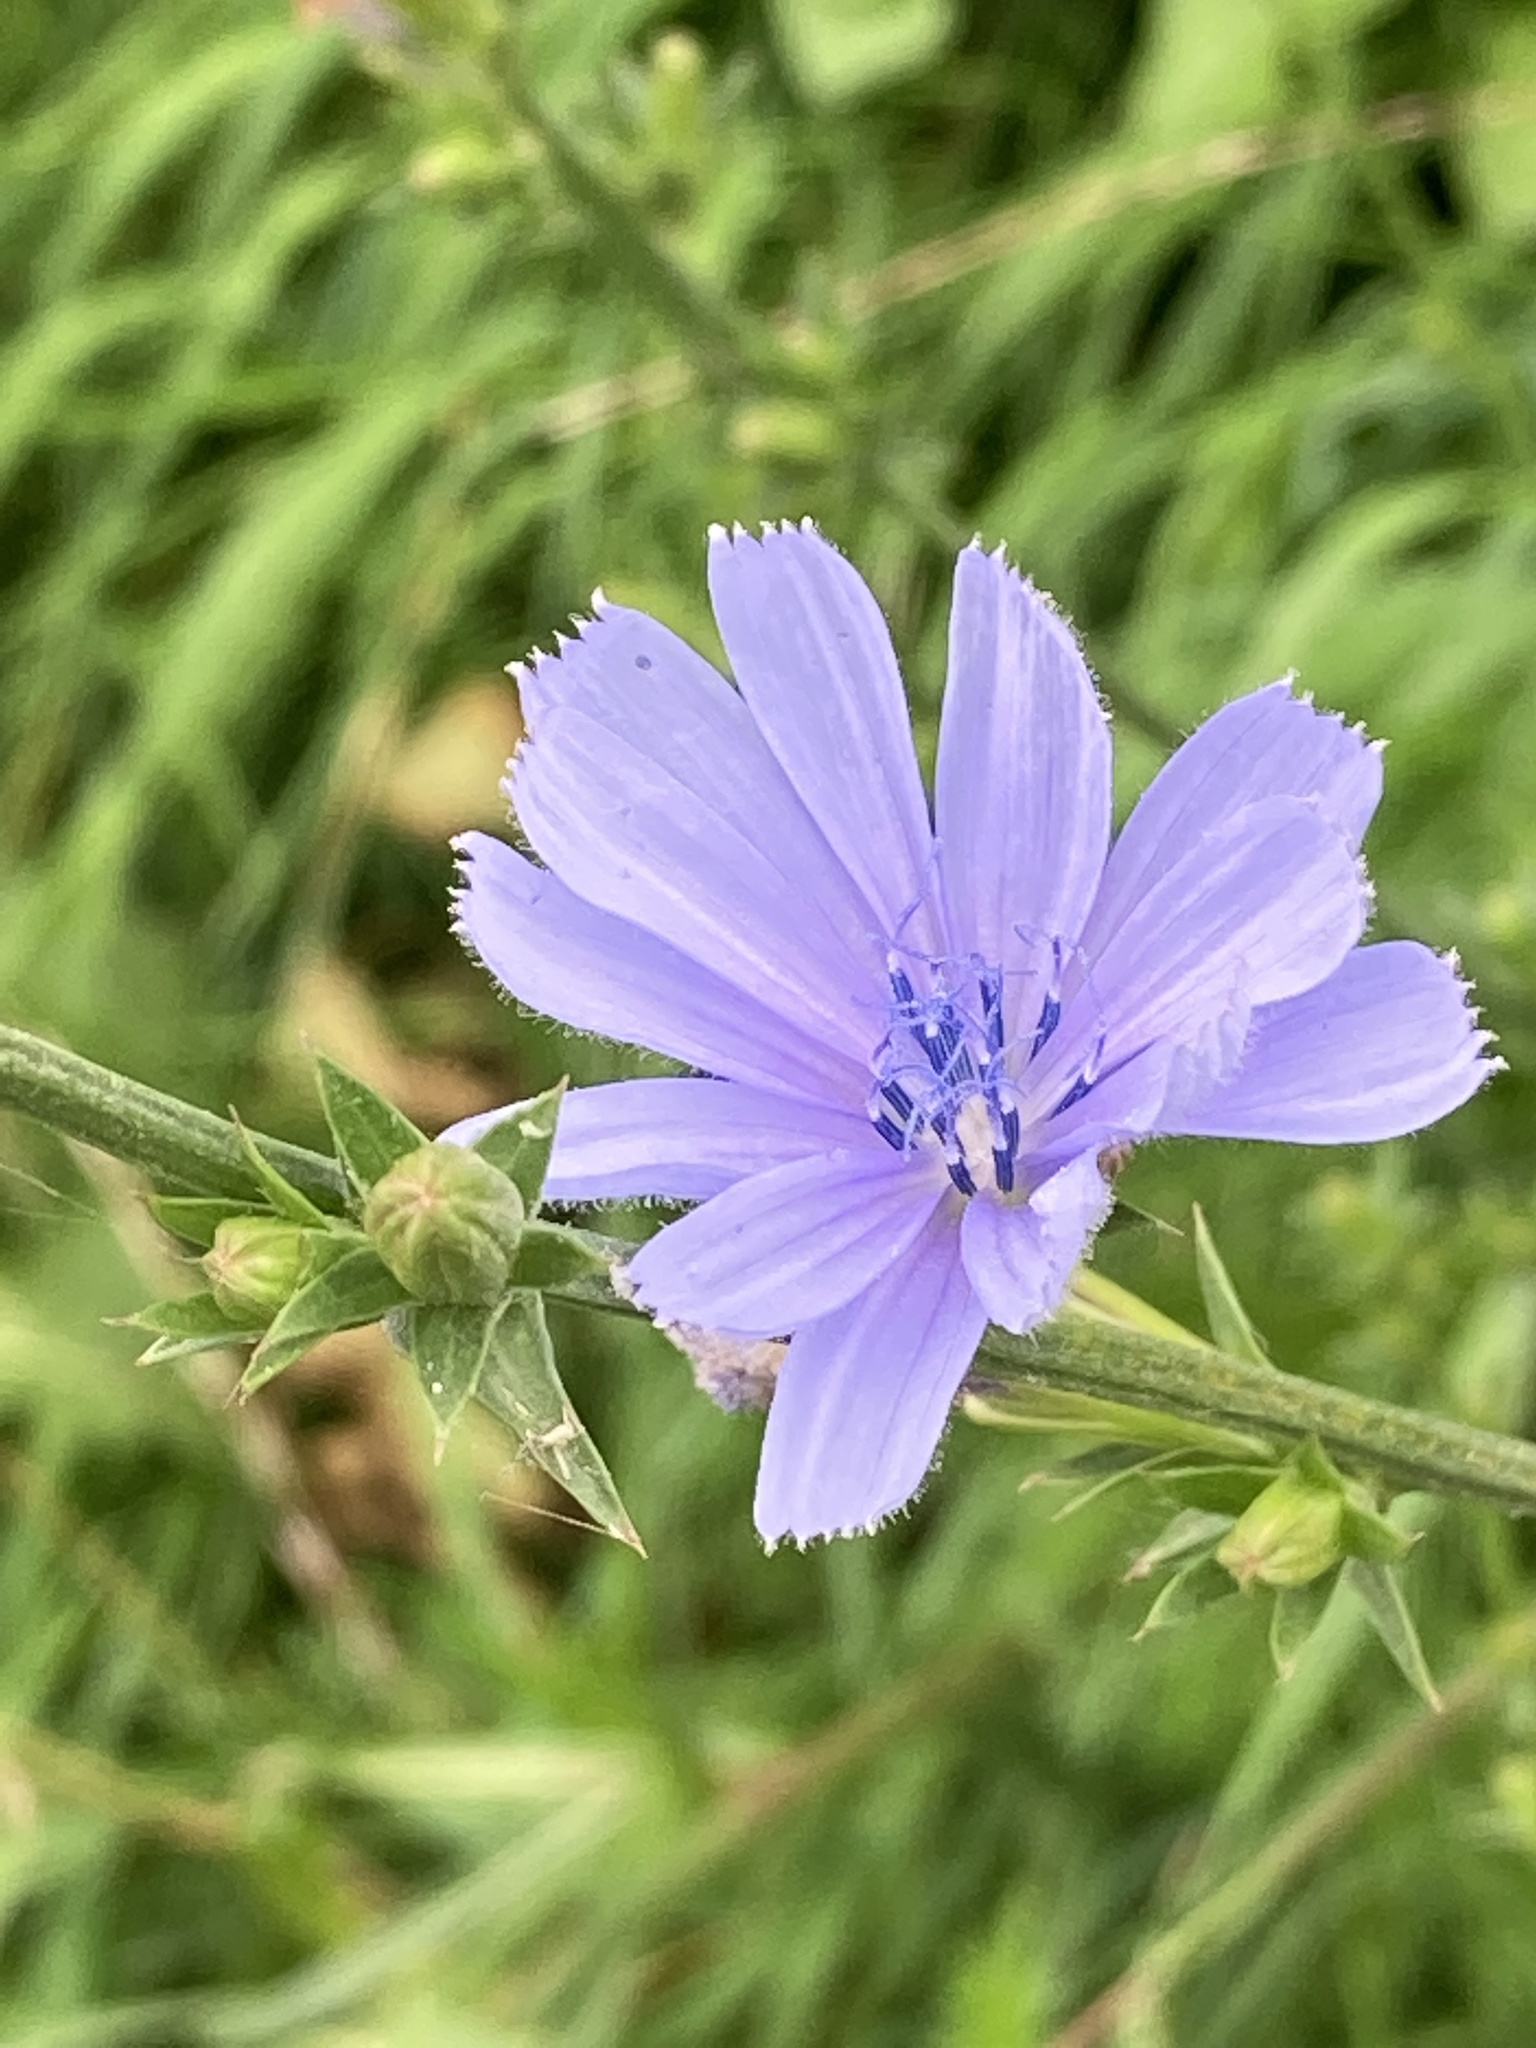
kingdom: Plantae
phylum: Tracheophyta
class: Magnoliopsida
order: Asterales
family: Asteraceae
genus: Cichorium
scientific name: Cichorium intybus
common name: Chicory
